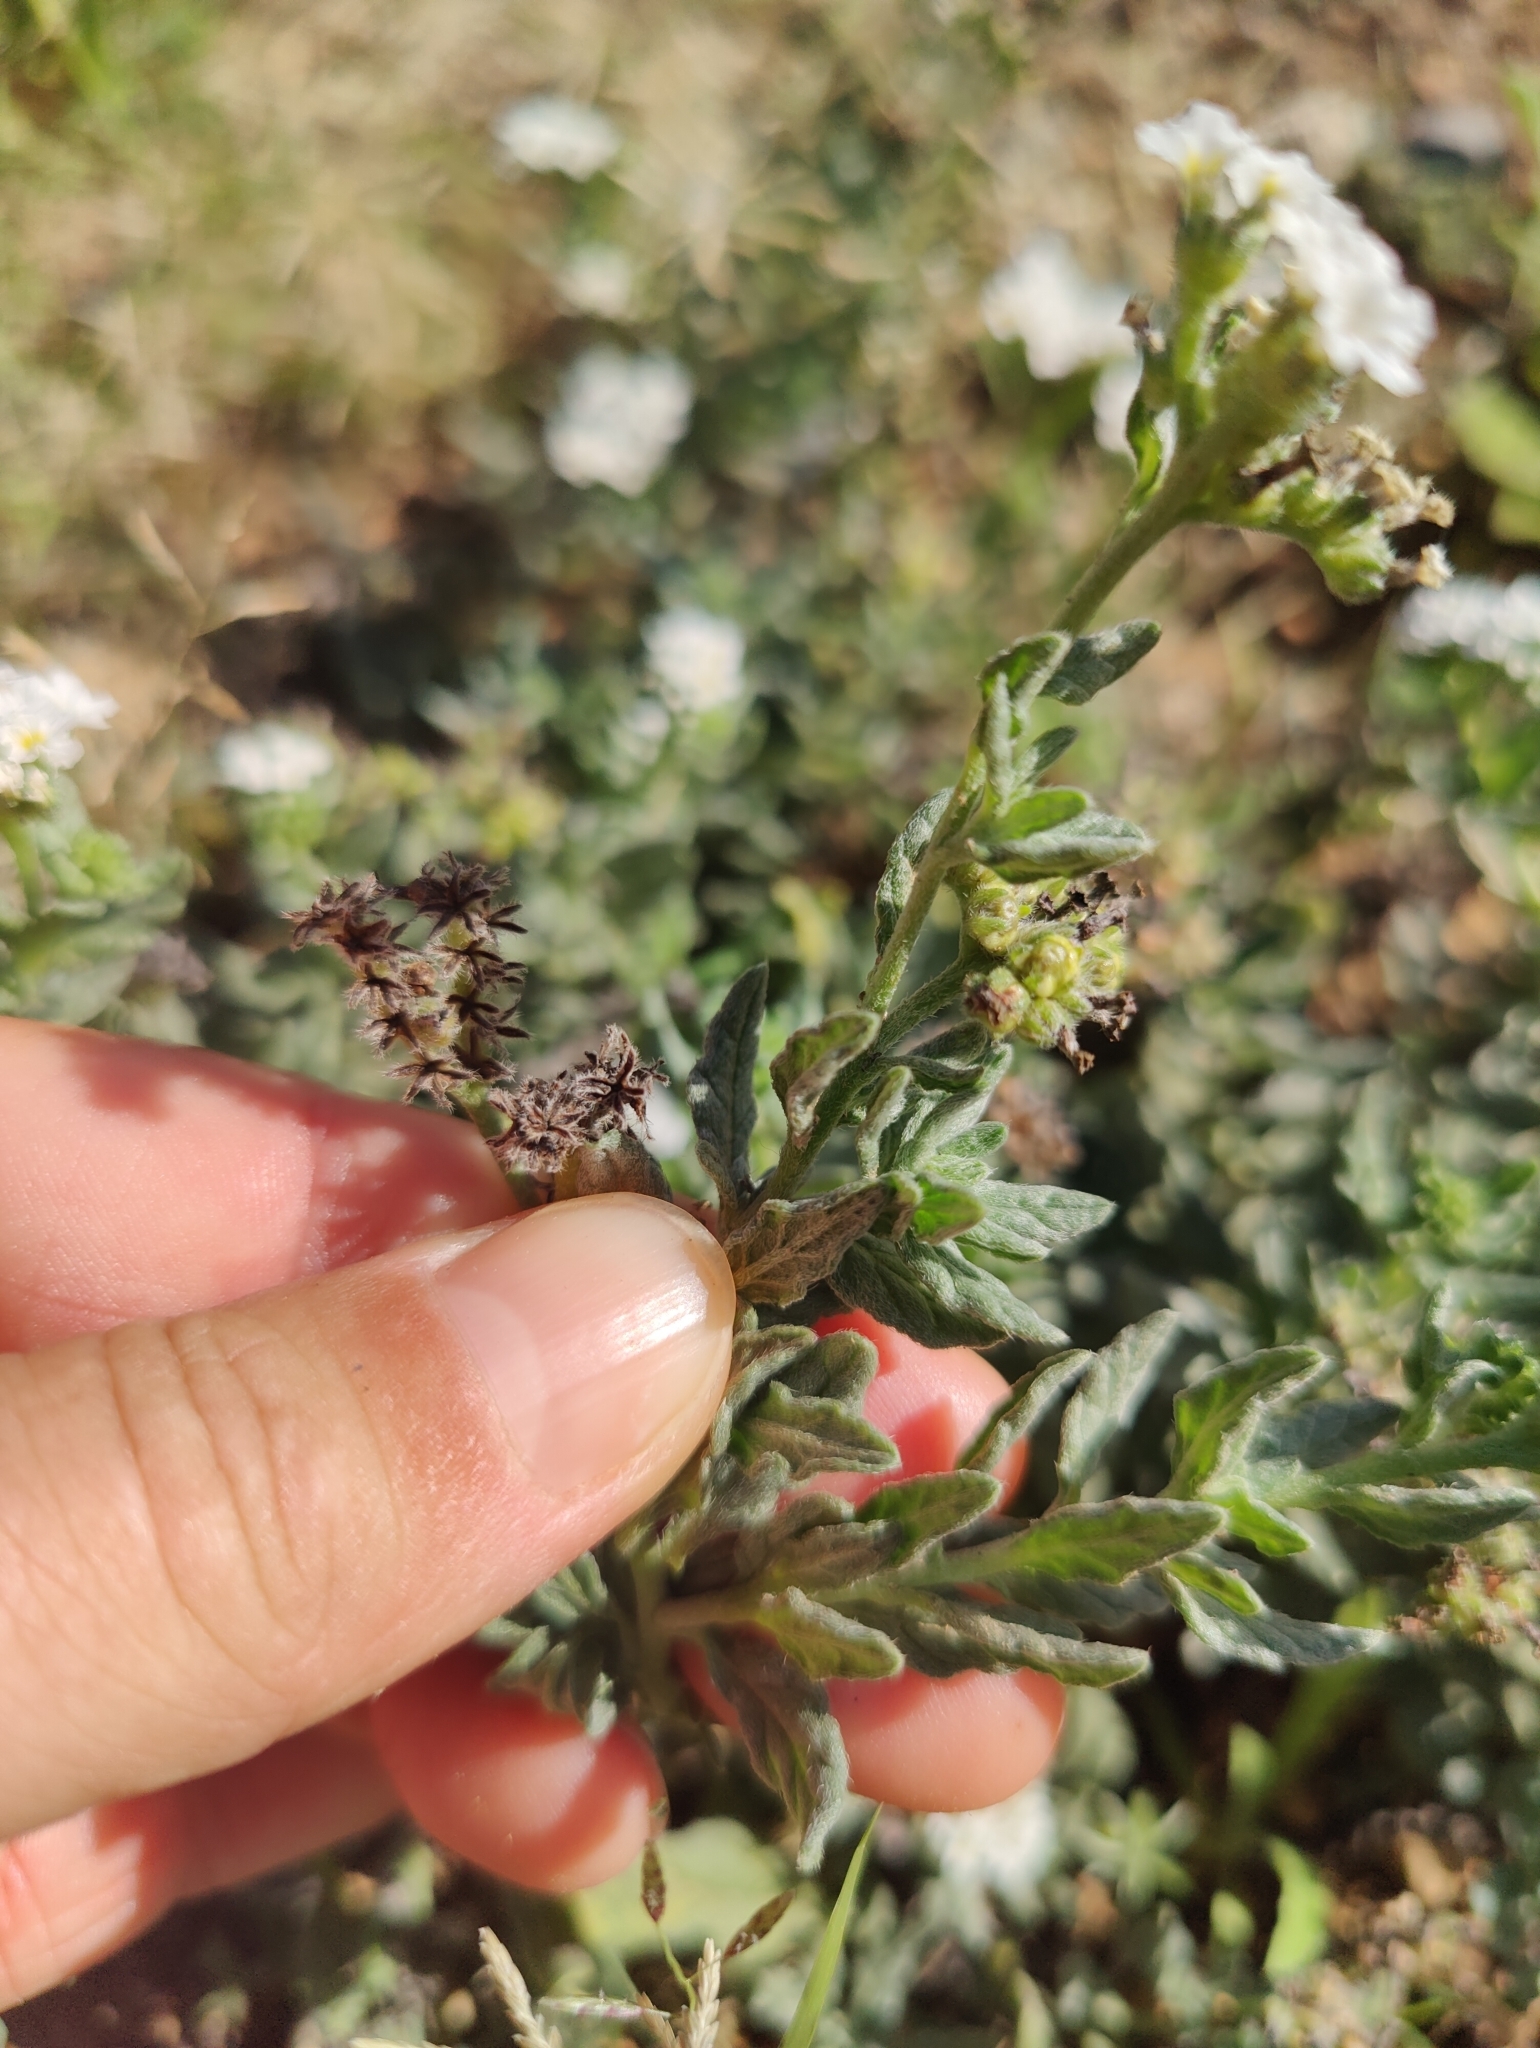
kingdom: Plantae
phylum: Tracheophyta
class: Magnoliopsida
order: Boraginales
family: Heliotropiaceae
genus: Heliotropium
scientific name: Heliotropium ramosissimum
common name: Wavy heliotrope
